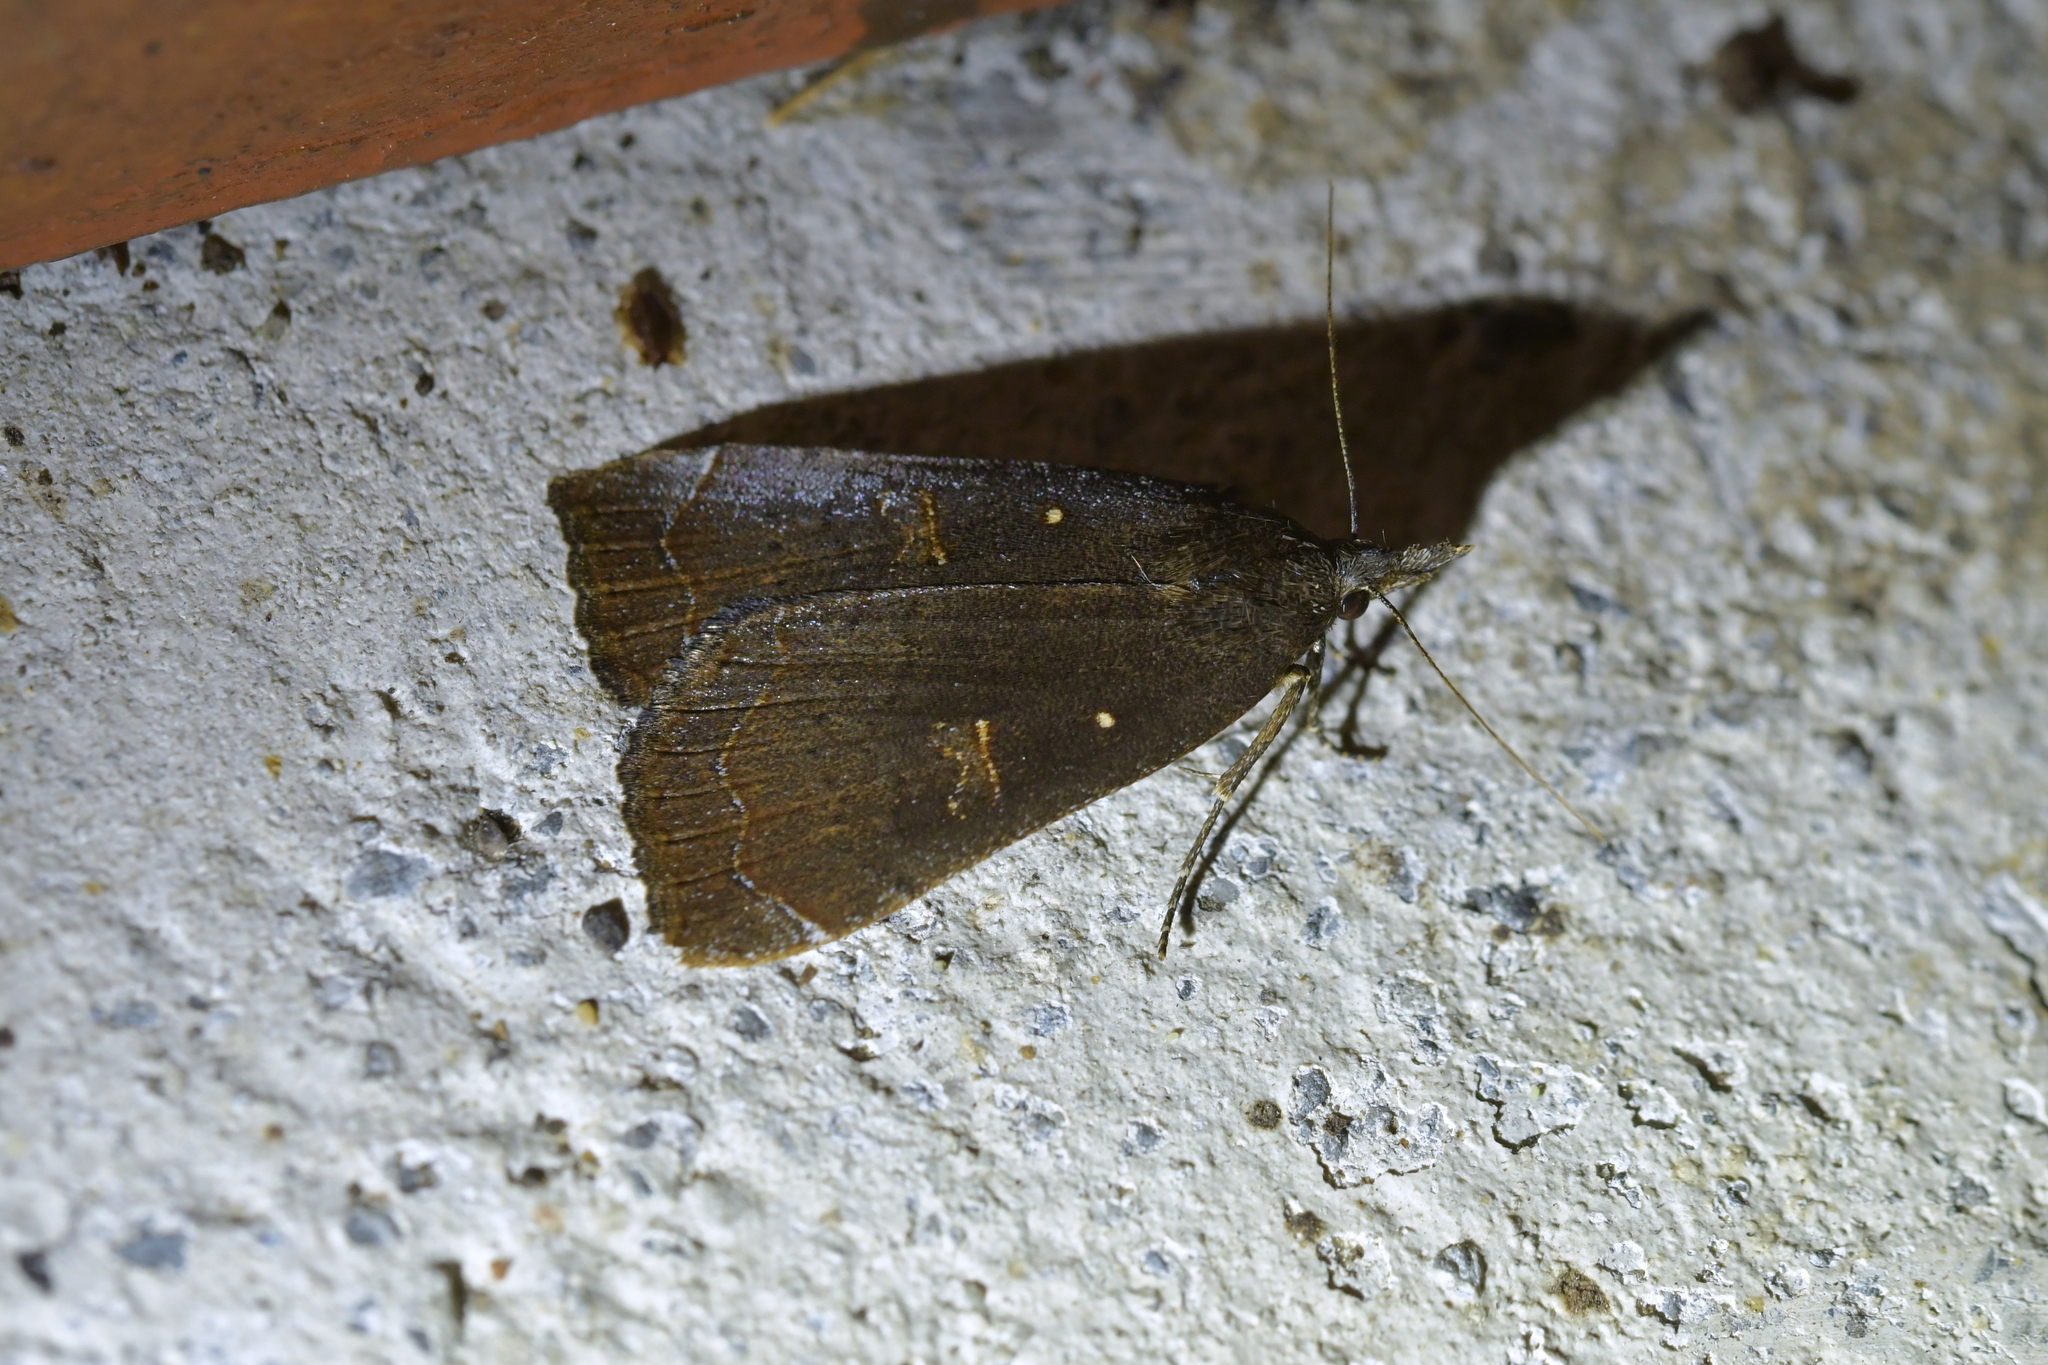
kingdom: Animalia
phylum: Arthropoda
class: Insecta
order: Lepidoptera
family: Erebidae
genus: Rhapsa
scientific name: Rhapsa scotosialis
